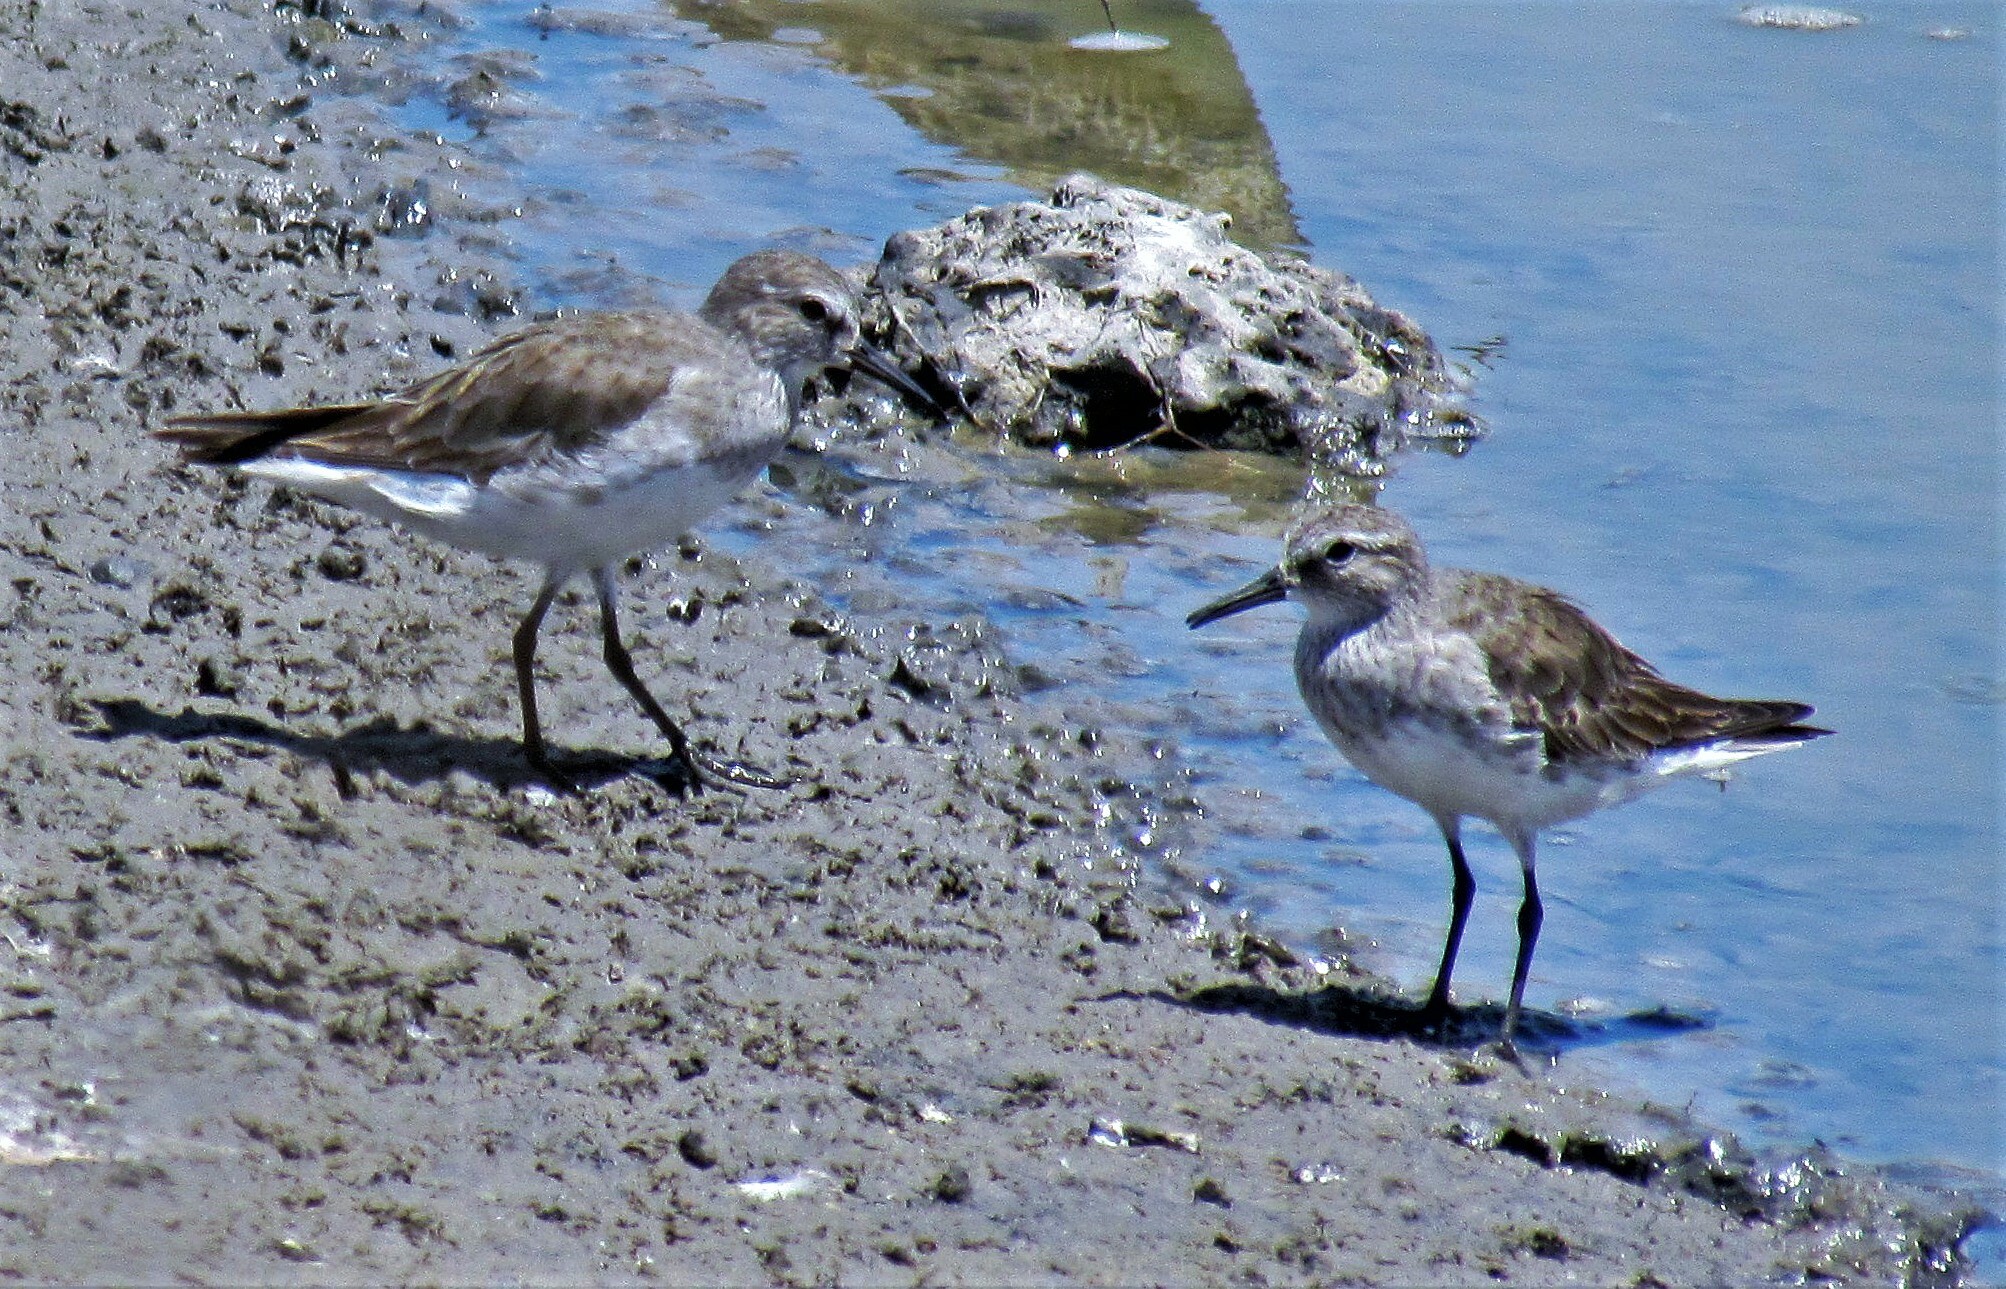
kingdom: Animalia
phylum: Chordata
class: Aves
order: Charadriiformes
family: Scolopacidae
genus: Calidris
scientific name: Calidris fuscicollis
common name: White-rumped sandpiper
